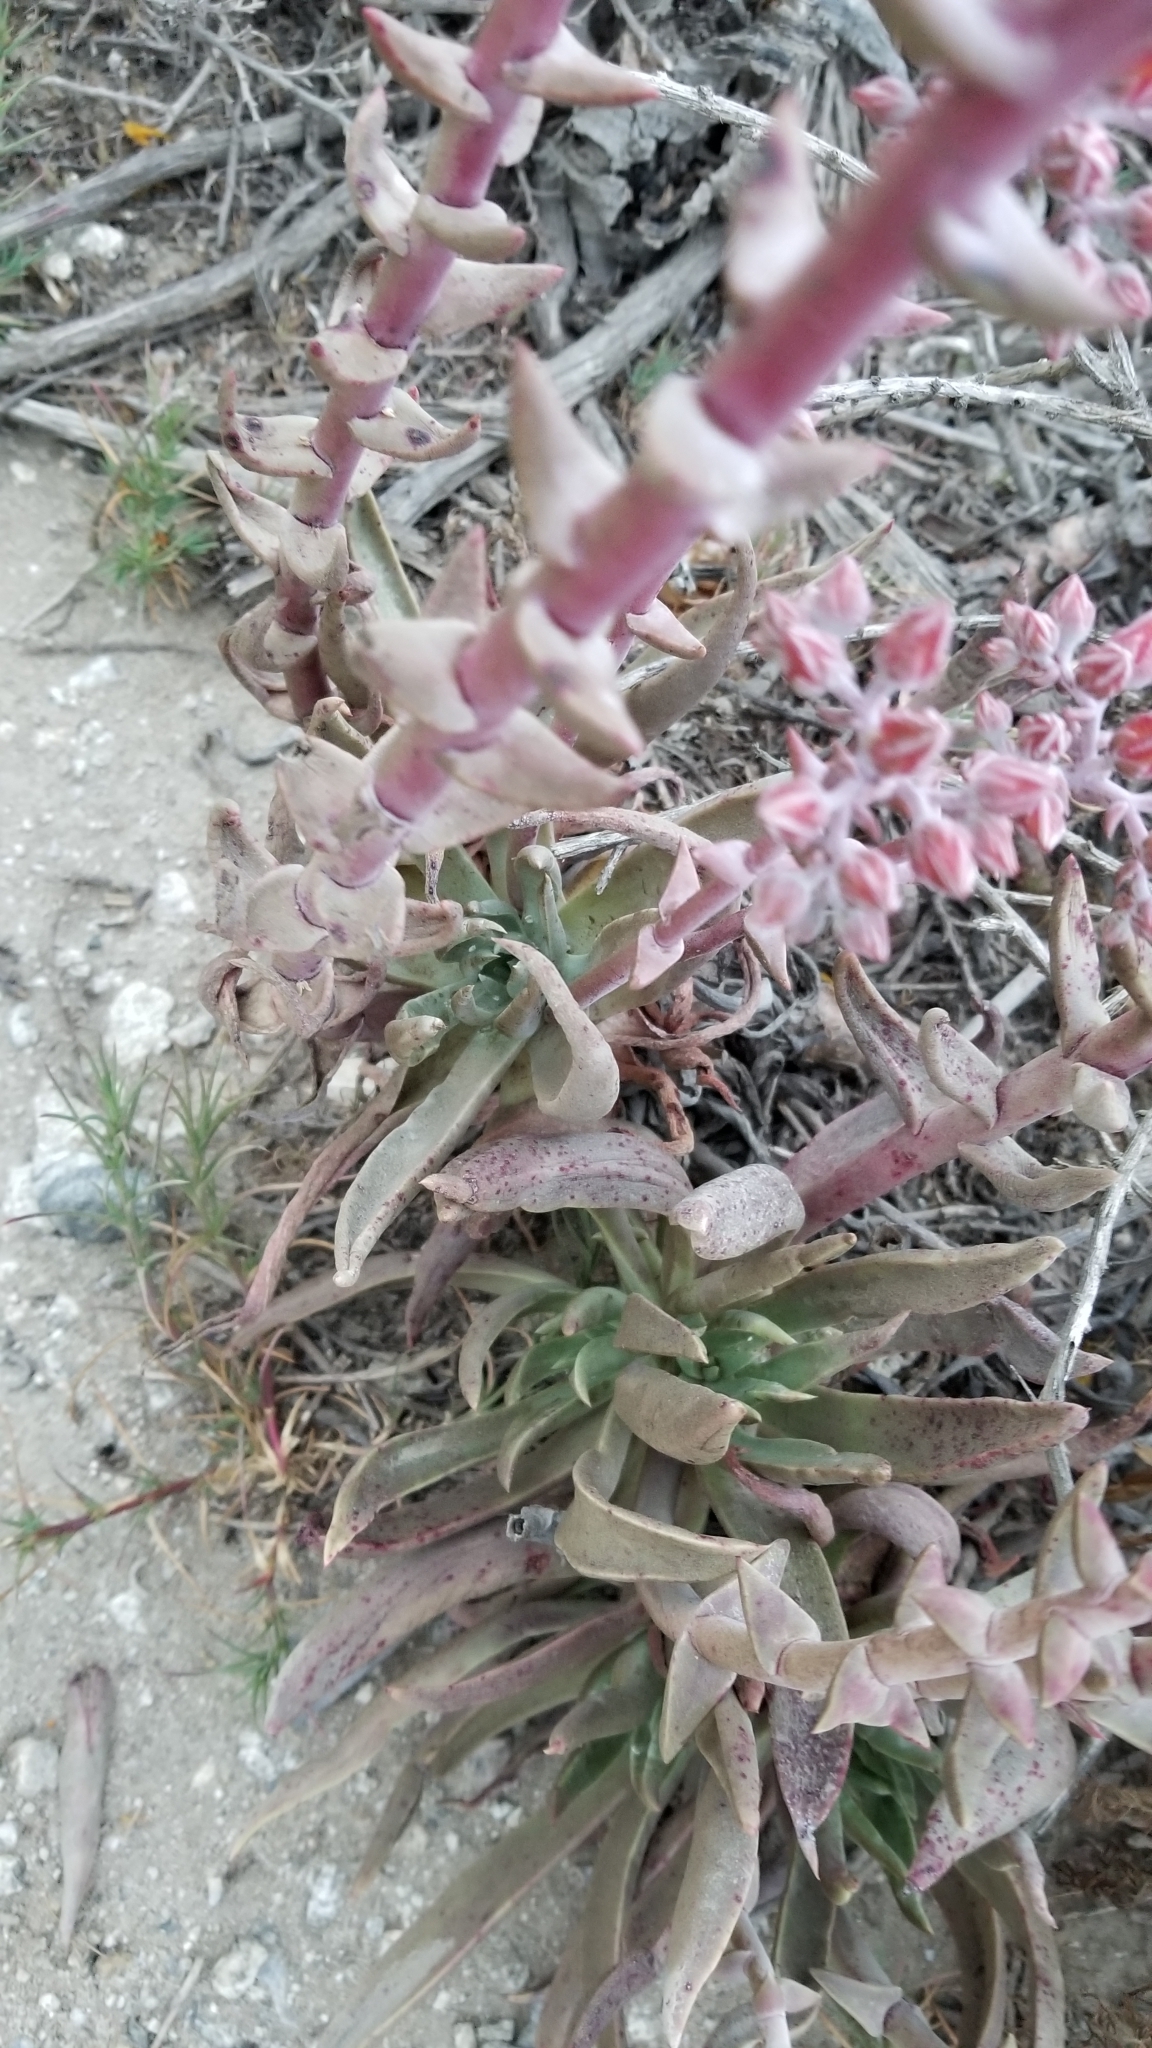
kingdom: Plantae
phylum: Tracheophyta
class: Magnoliopsida
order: Saxifragales
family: Crassulaceae
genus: Dudleya
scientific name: Dudleya caespitosa
